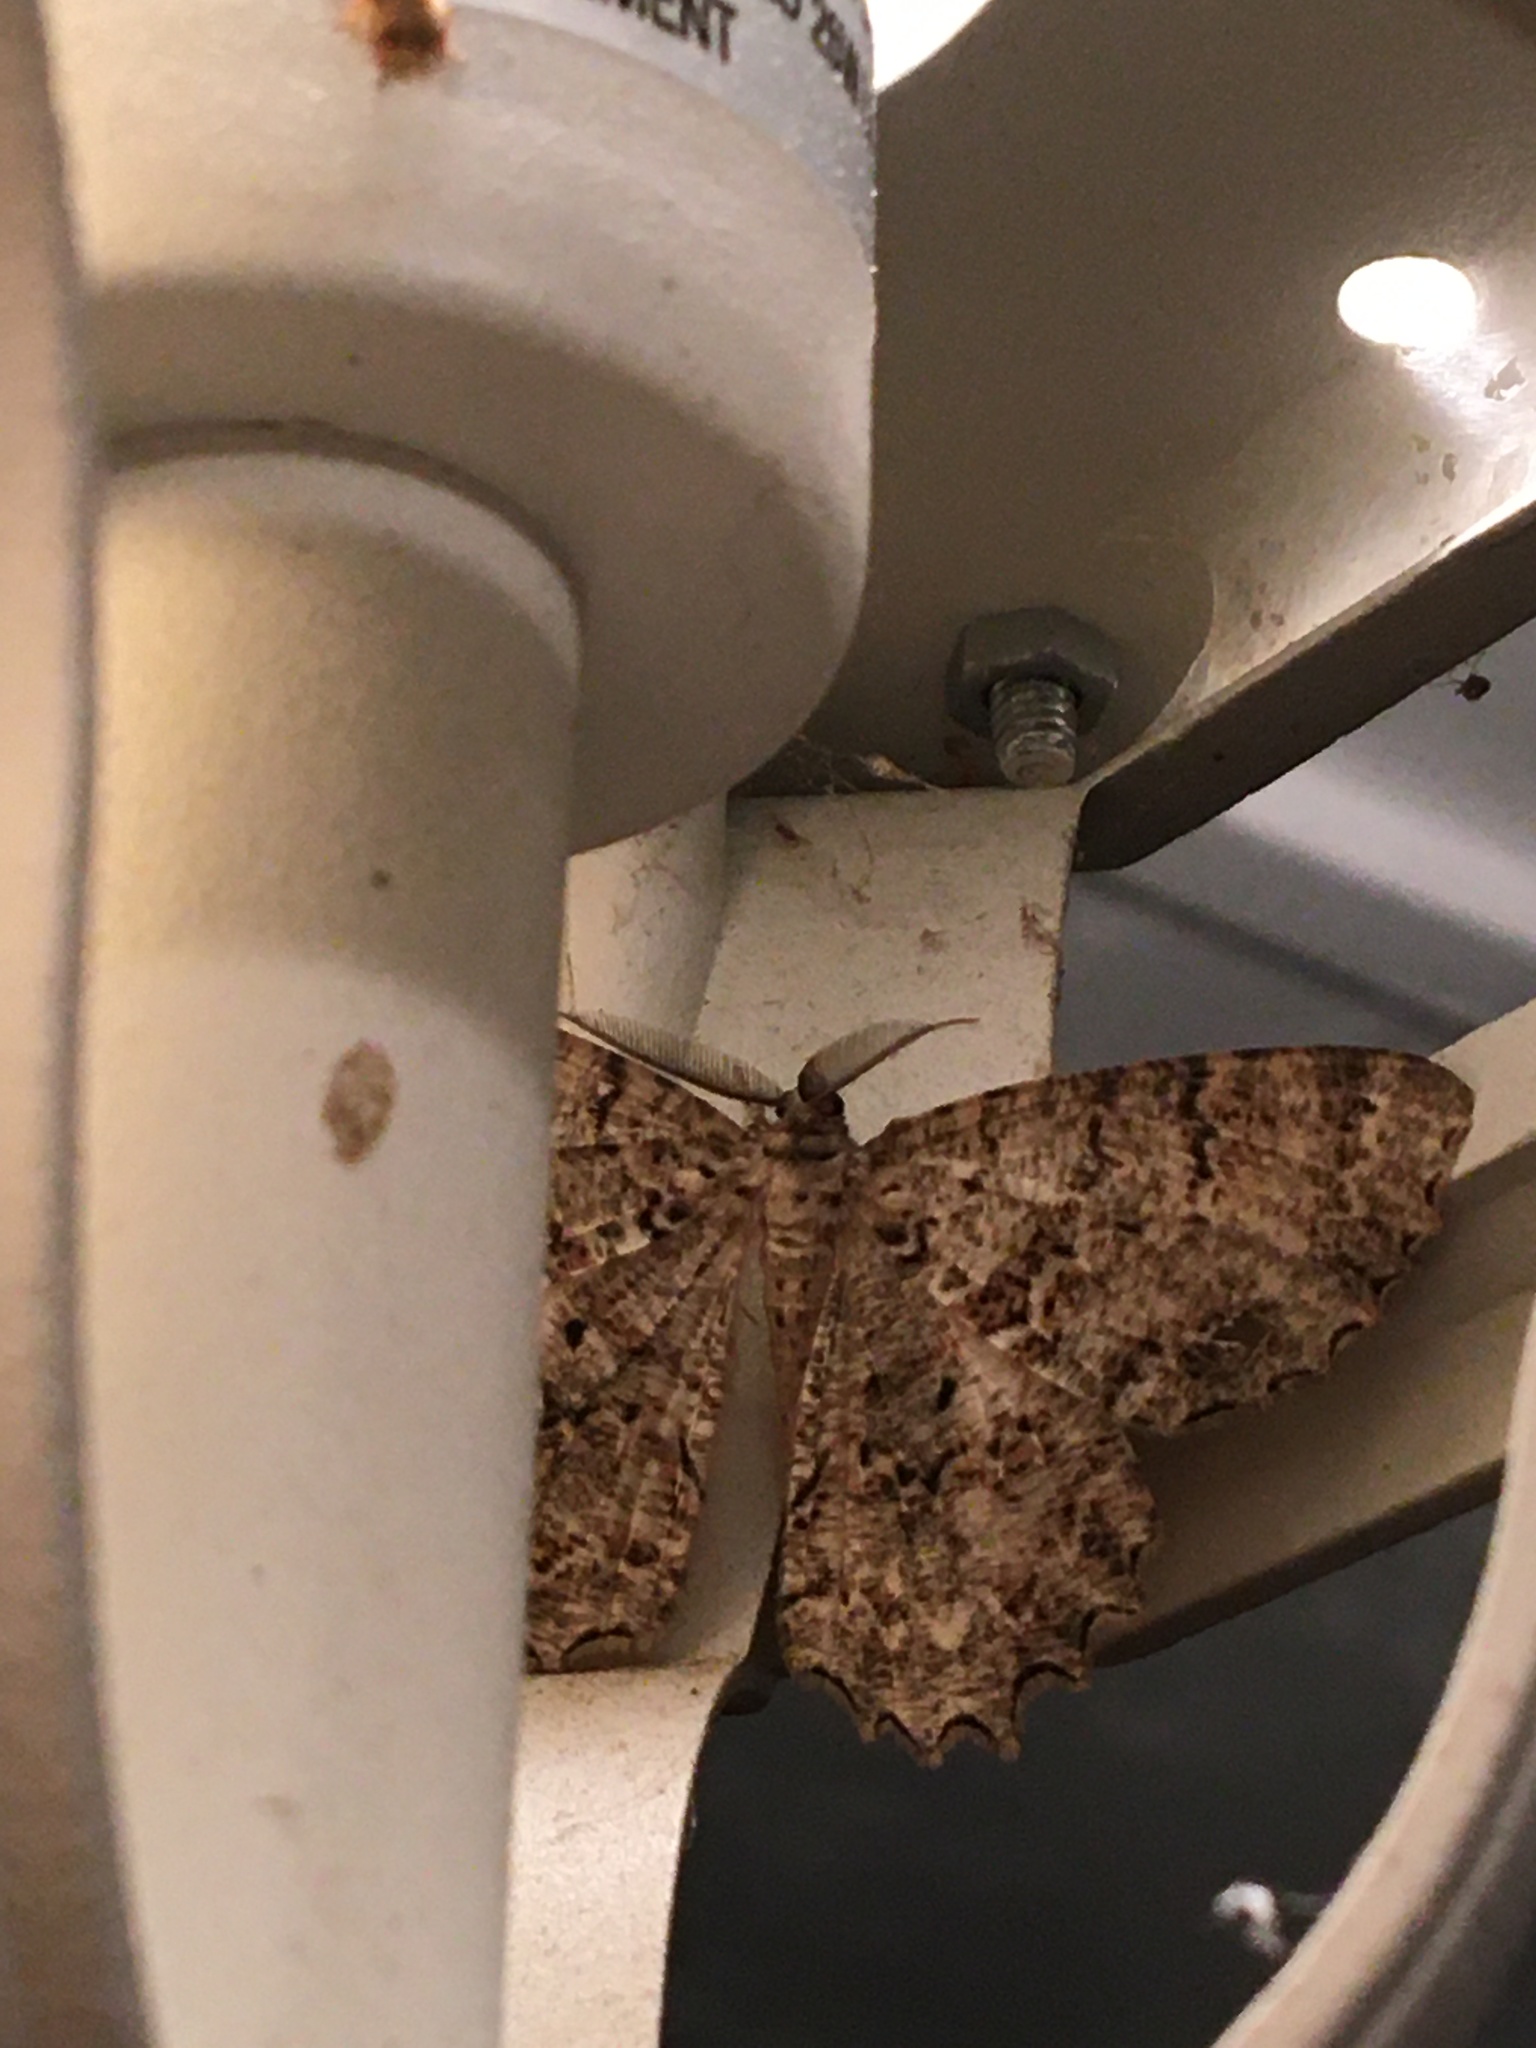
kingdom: Animalia
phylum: Arthropoda
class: Insecta
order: Lepidoptera
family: Geometridae
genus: Epimecis
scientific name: Epimecis hortaria
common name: Tulip-tree beauty
